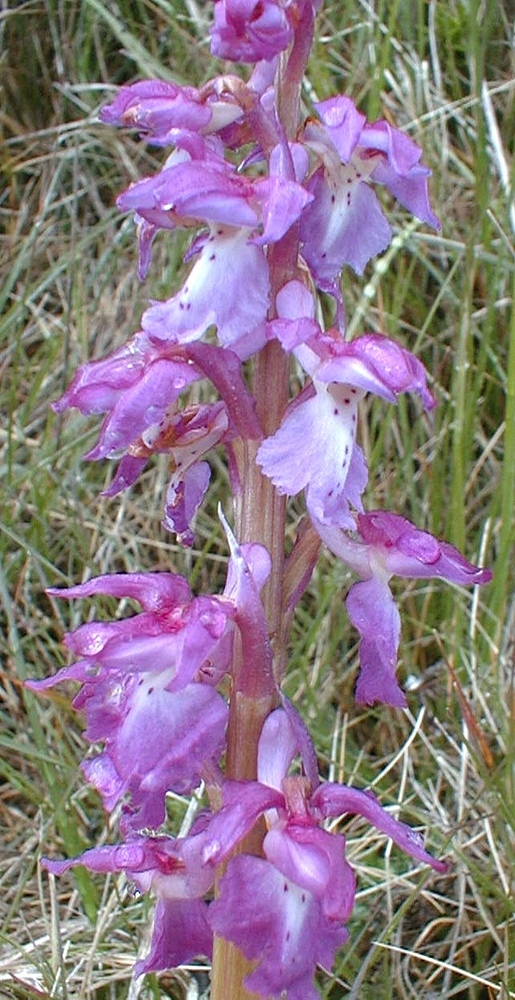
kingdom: Plantae
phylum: Tracheophyta
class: Liliopsida
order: Asparagales
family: Orchidaceae
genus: Orchis
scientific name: Orchis mascula
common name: Early-purple orchid
